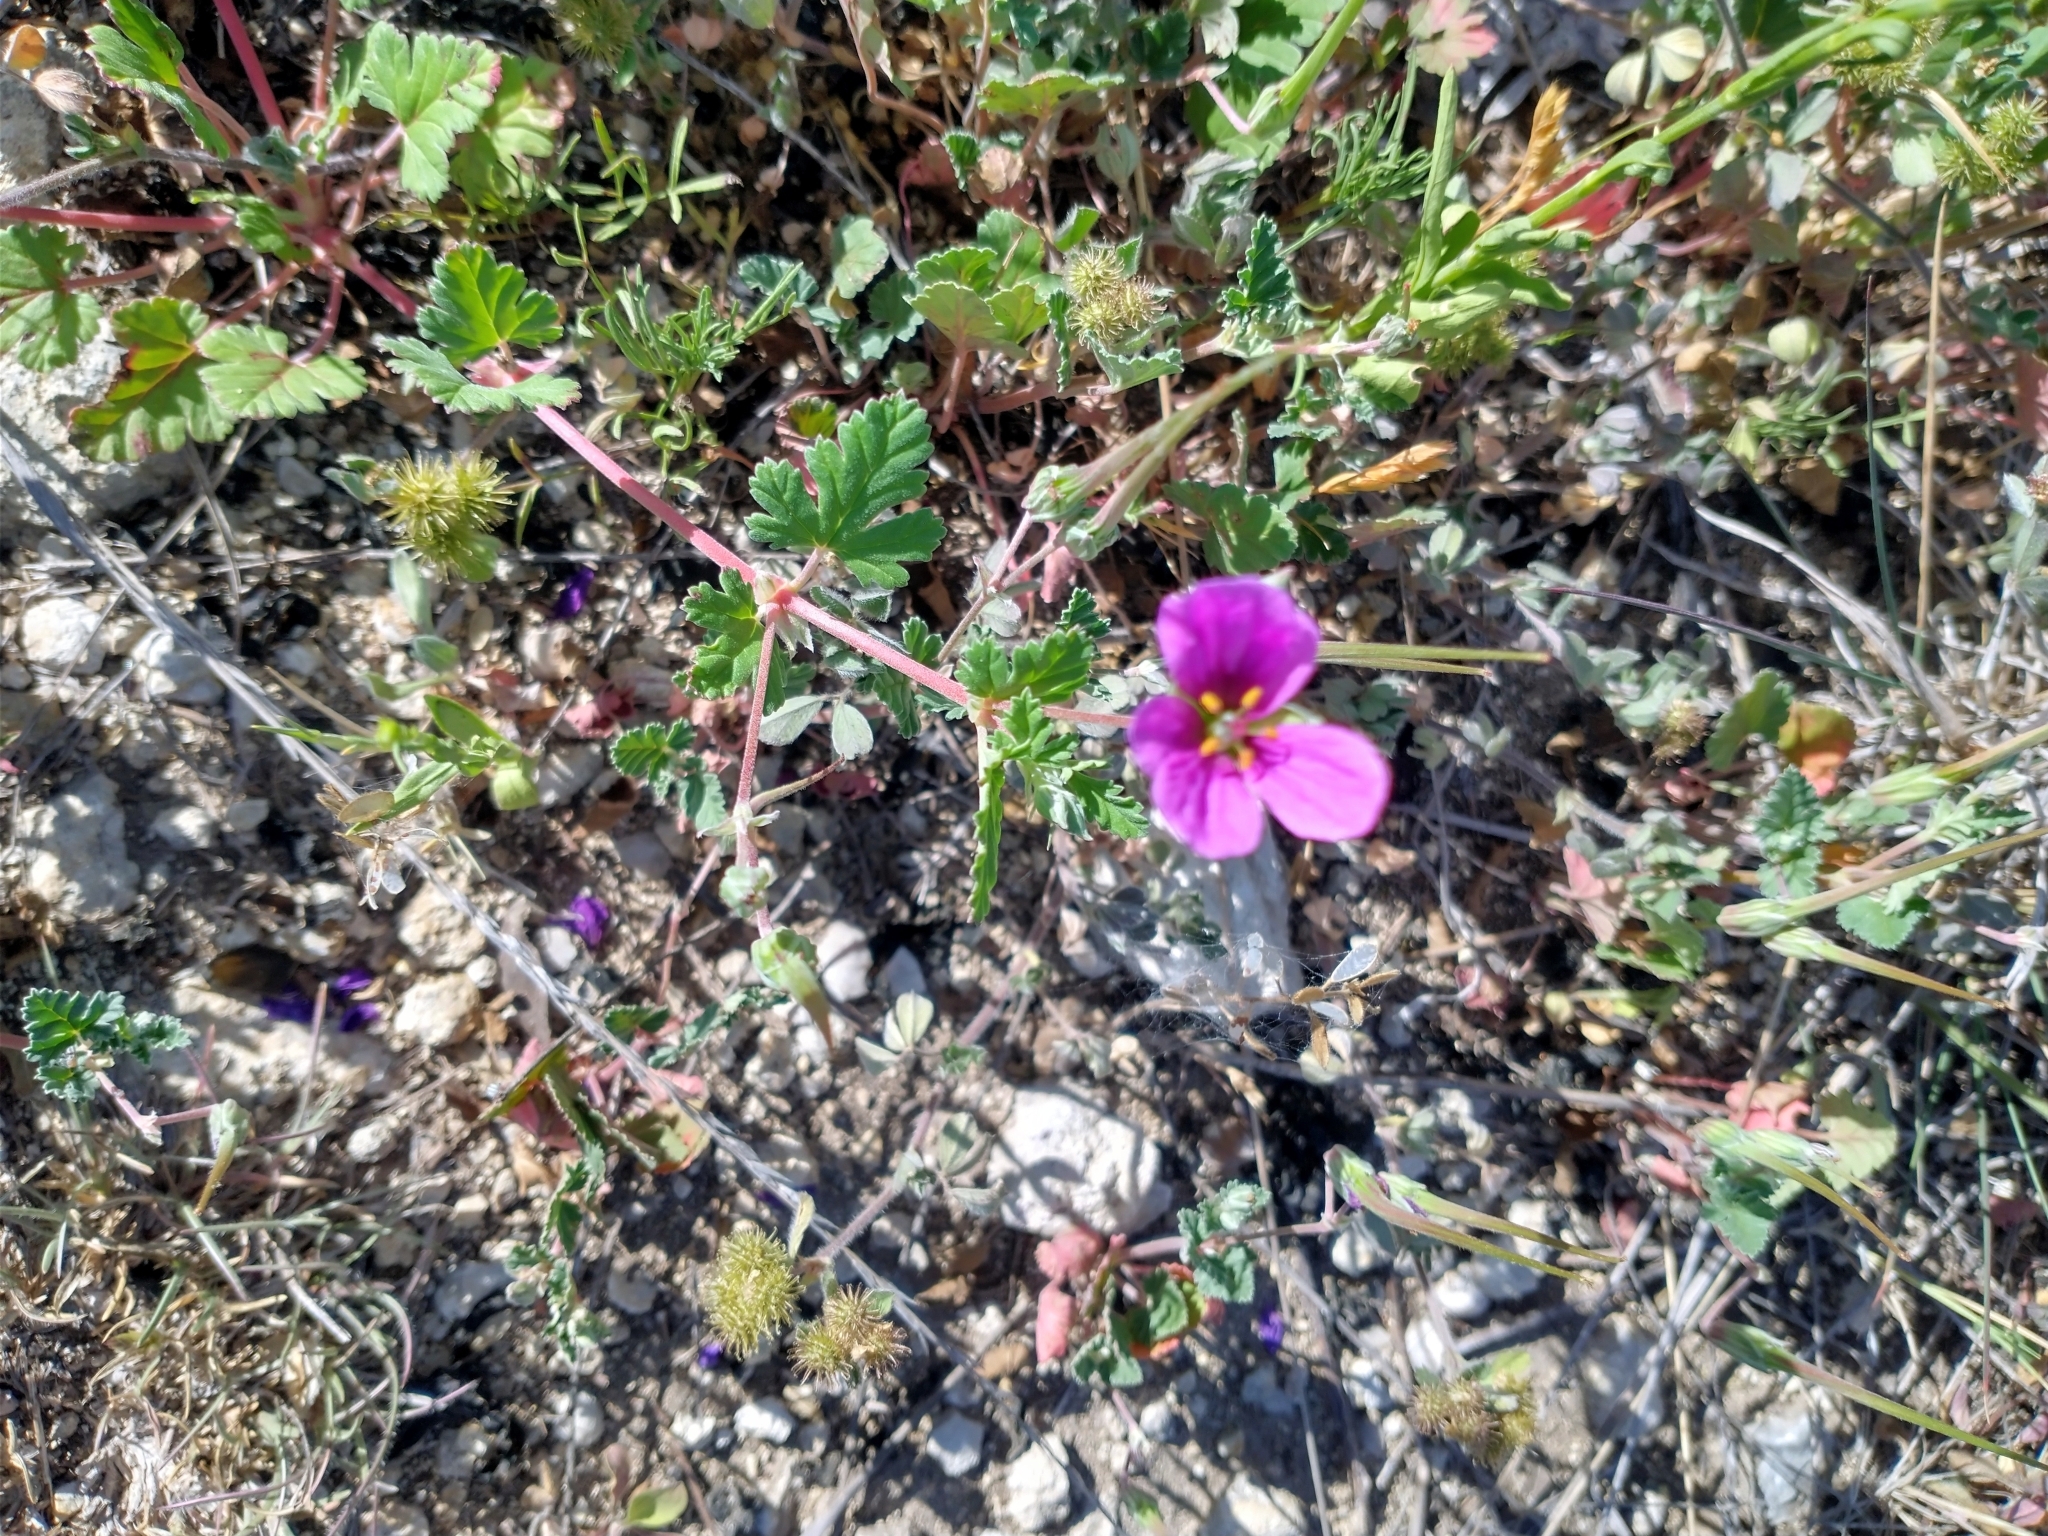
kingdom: Plantae
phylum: Tracheophyta
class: Magnoliopsida
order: Geraniales
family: Geraniaceae
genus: Erodium
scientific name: Erodium texanum
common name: Texas stork's-bill
